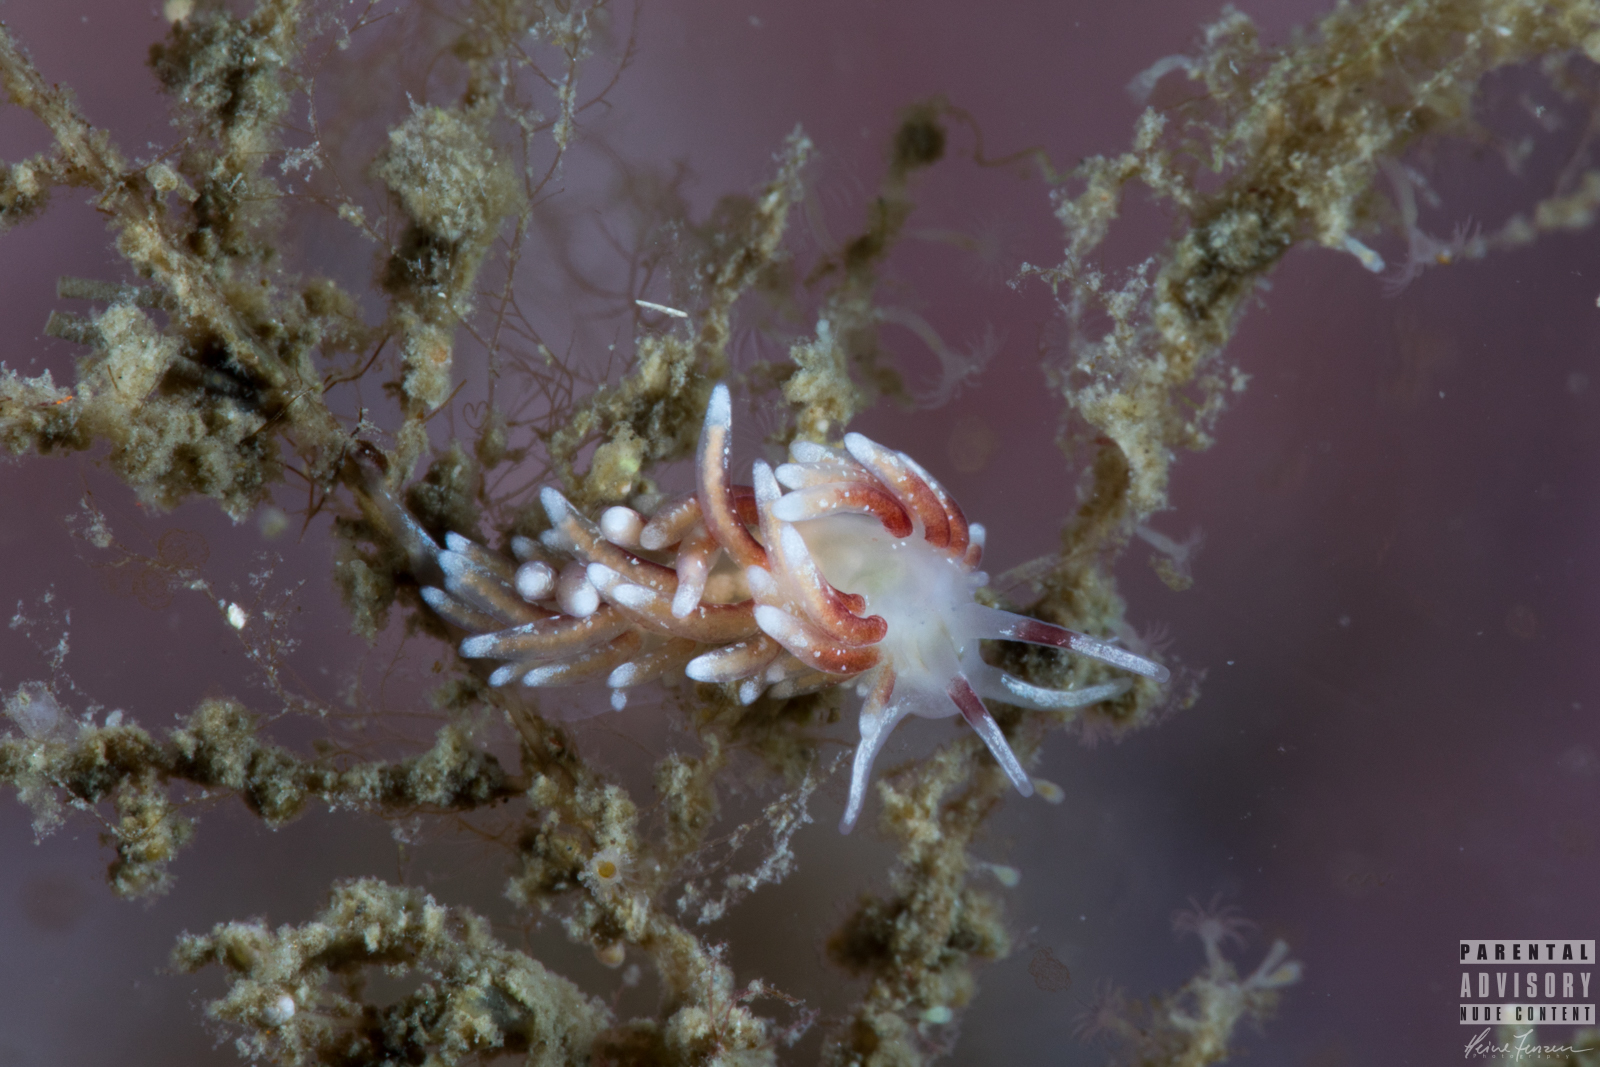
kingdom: Animalia
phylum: Mollusca
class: Gastropoda
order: Nudibranchia
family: Trinchesiidae
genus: Rubramoena
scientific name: Rubramoena rubescens
